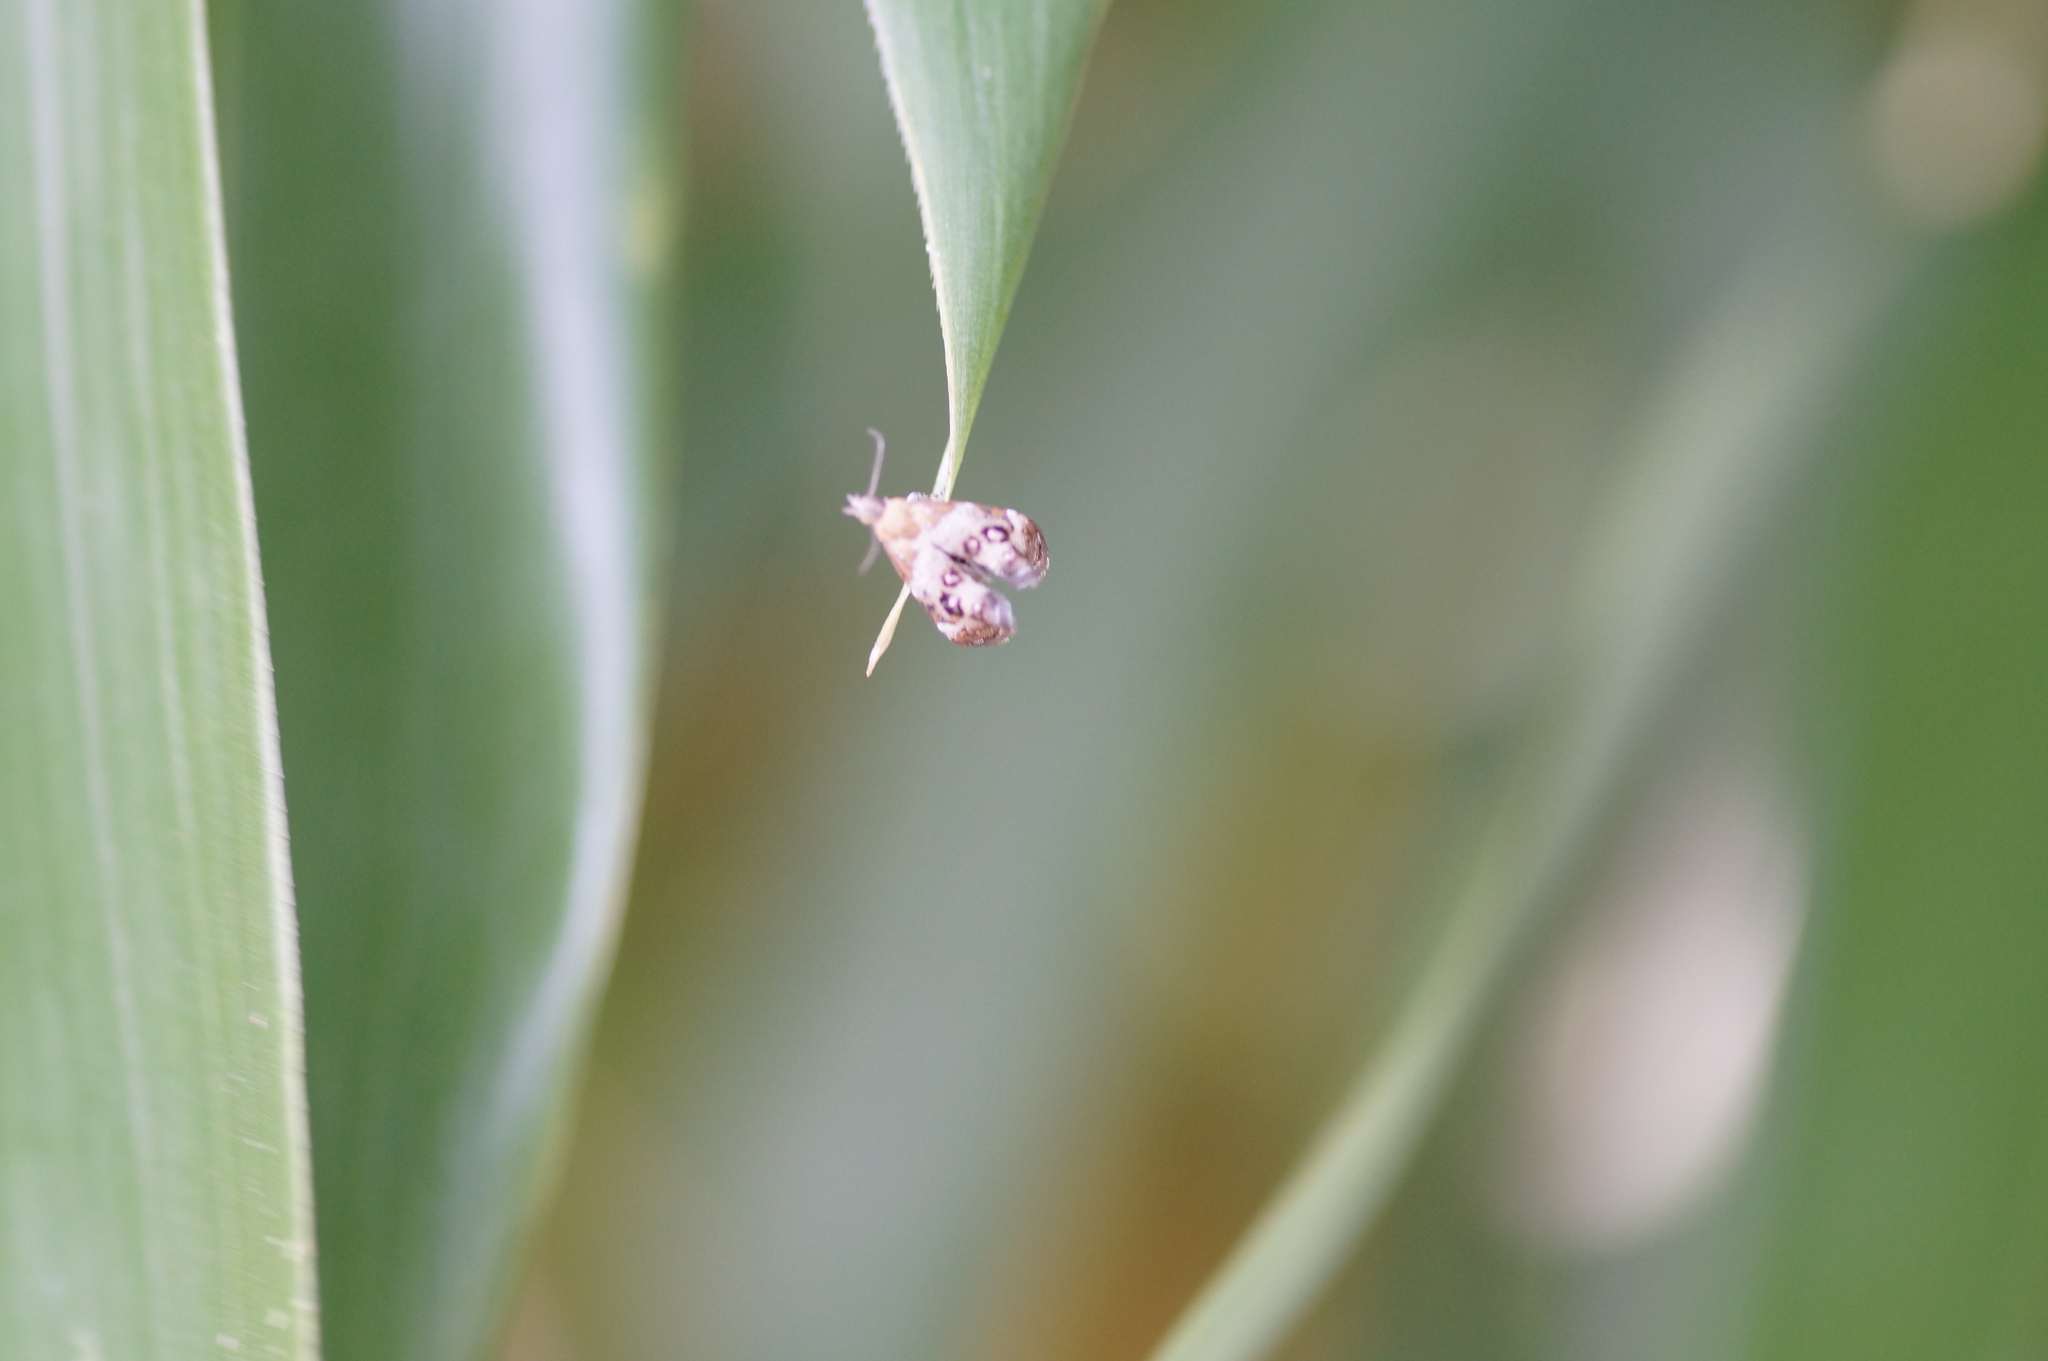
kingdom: Animalia
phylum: Arthropoda
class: Insecta
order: Lepidoptera
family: Choreutidae
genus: Tebenna
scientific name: Tebenna micalis
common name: Vagrant twitcher
